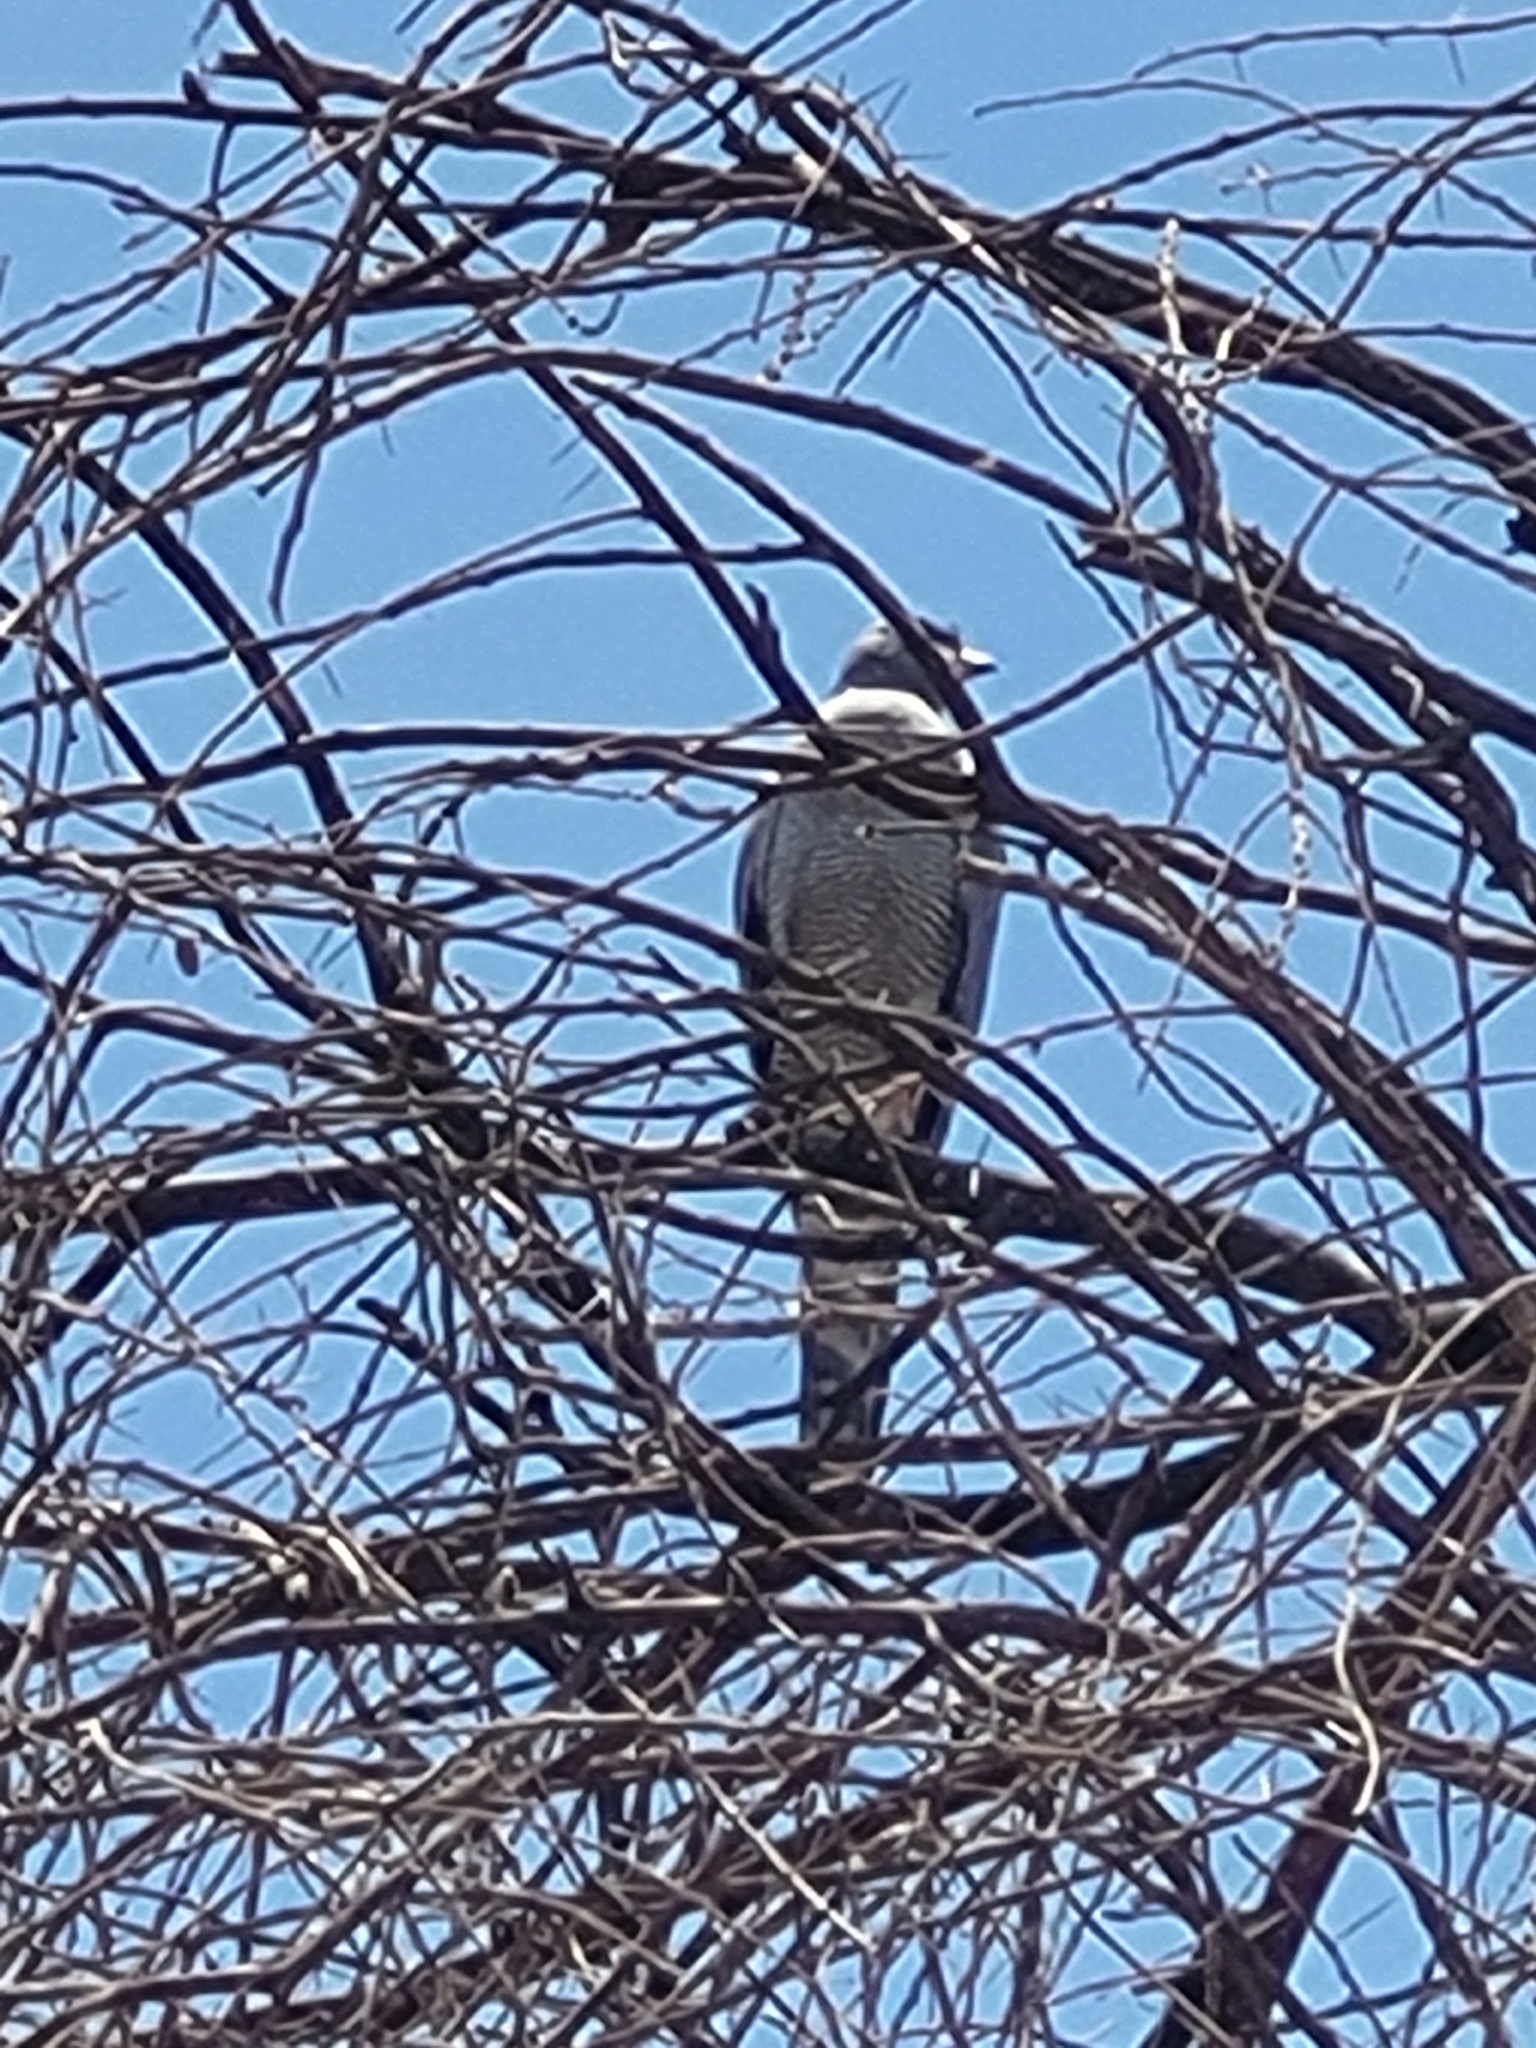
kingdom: Animalia
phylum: Chordata
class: Aves
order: Accipitriformes
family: Accipitridae
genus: Melierax
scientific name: Melierax poliopterus
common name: Eastern chanting goshawk
